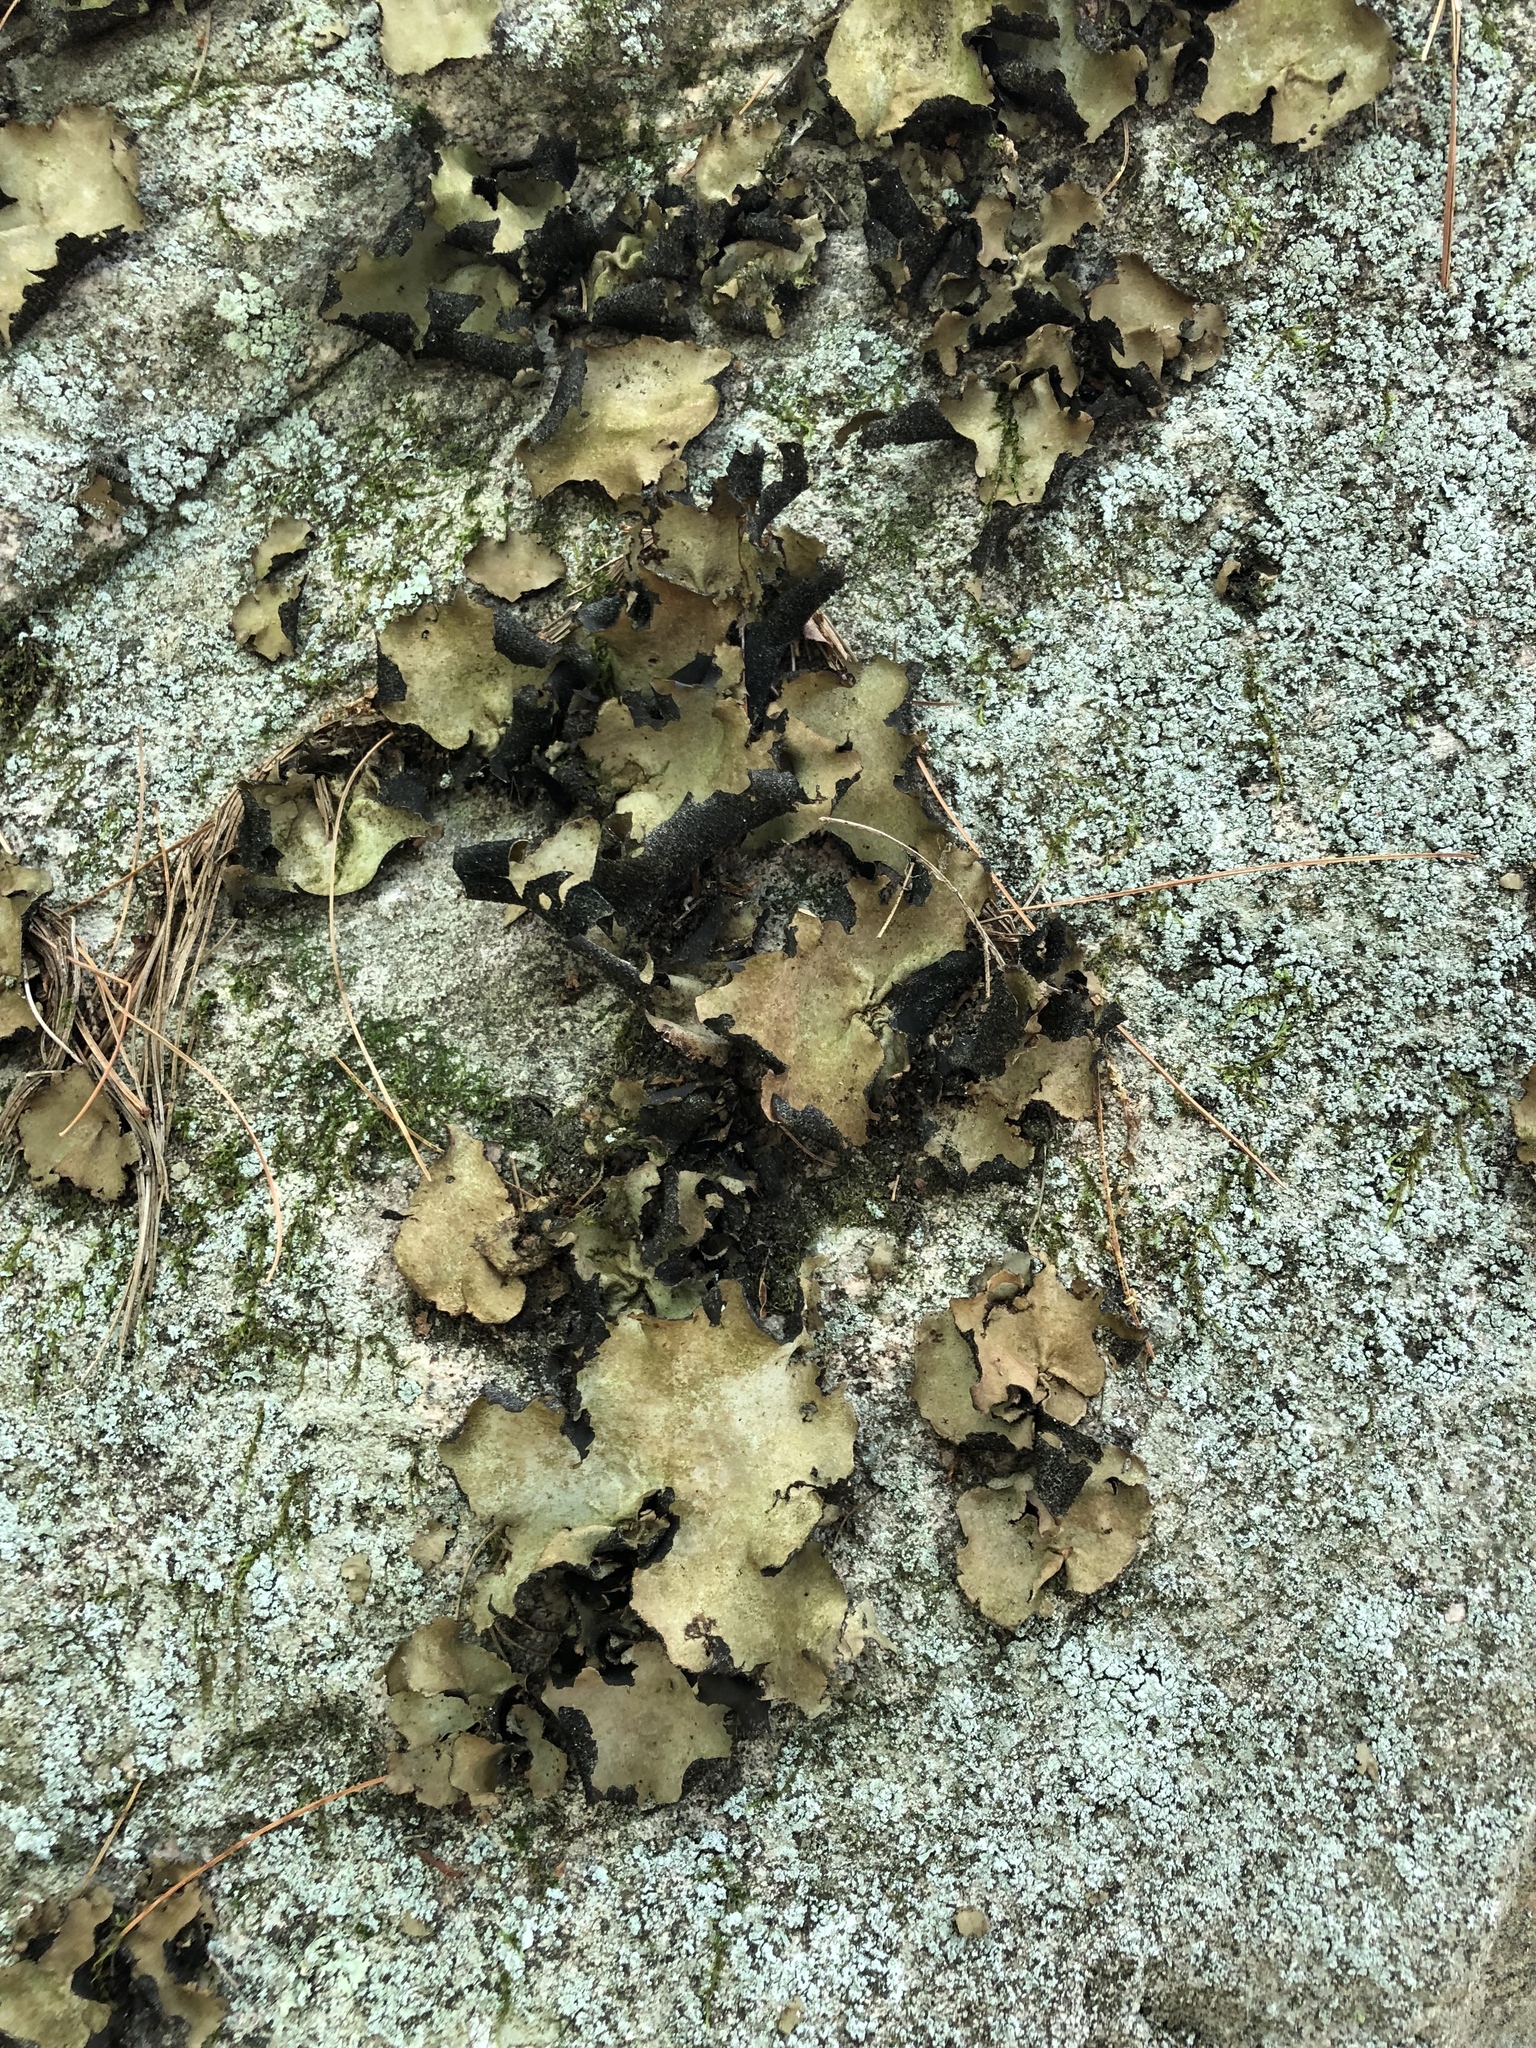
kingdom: Fungi
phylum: Ascomycota
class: Lecanoromycetes
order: Umbilicariales
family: Umbilicariaceae
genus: Umbilicaria
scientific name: Umbilicaria mammulata
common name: Smooth rock tripe
